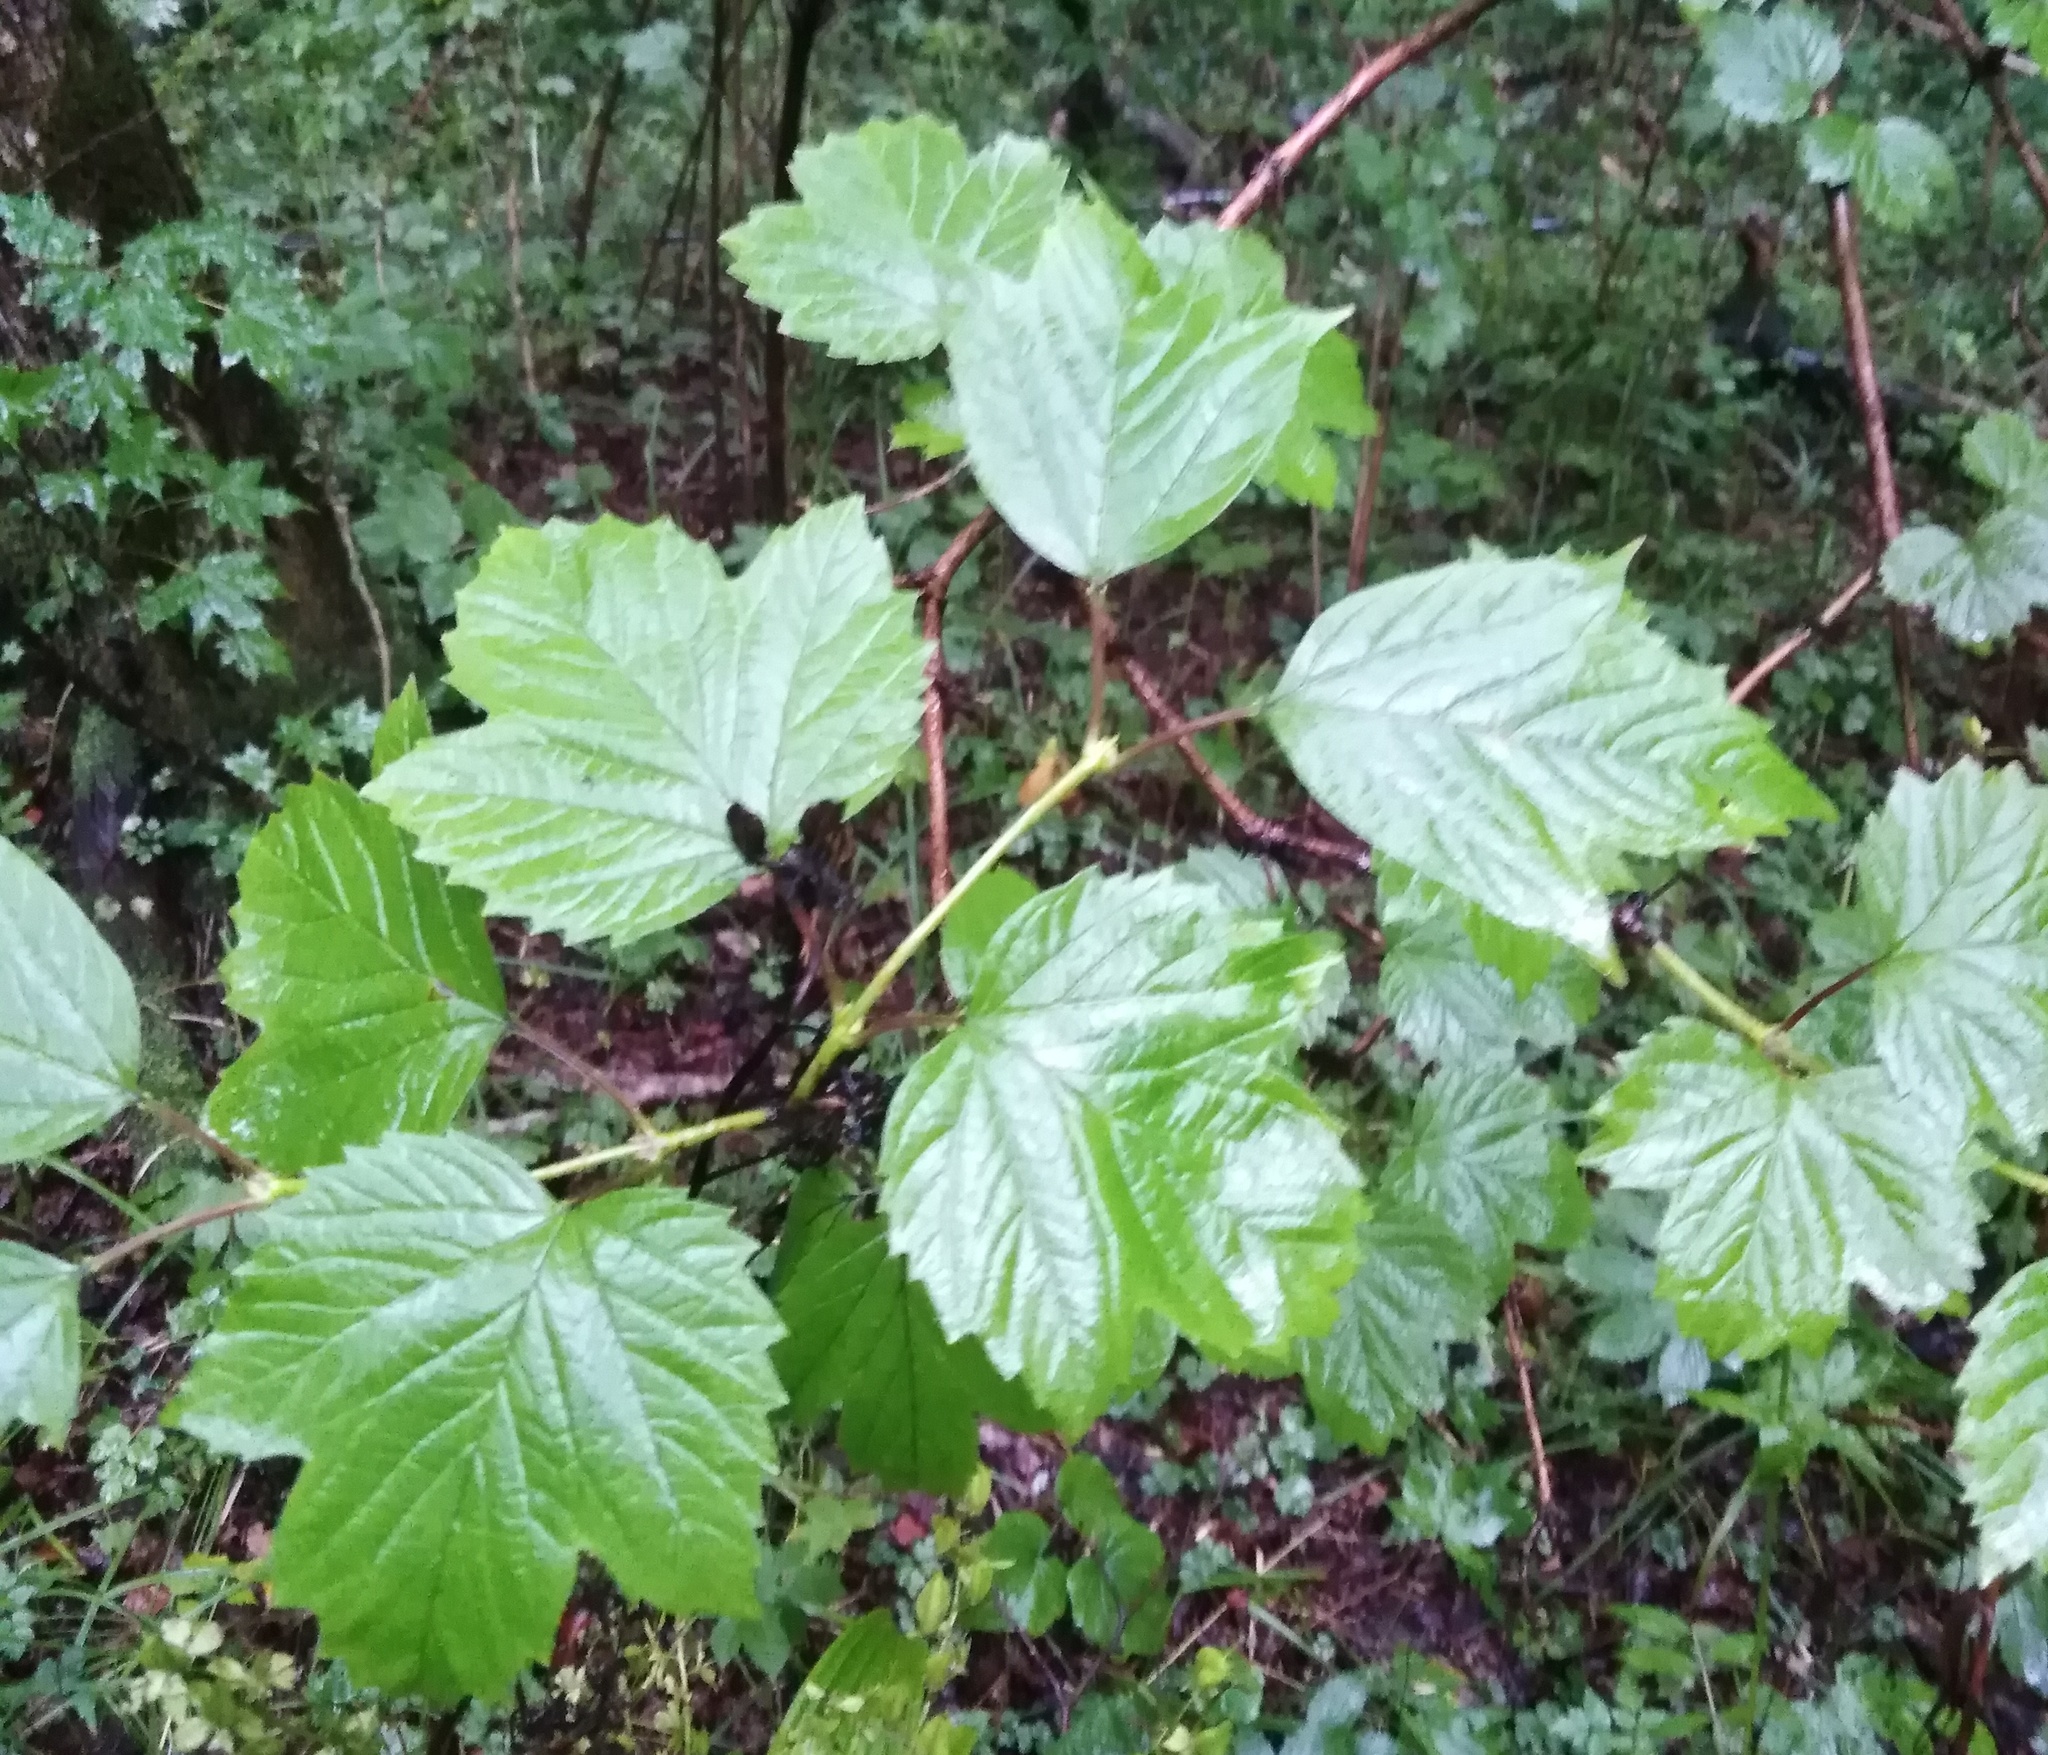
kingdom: Plantae
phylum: Tracheophyta
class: Magnoliopsida
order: Dipsacales
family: Viburnaceae
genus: Viburnum
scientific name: Viburnum sargentii
